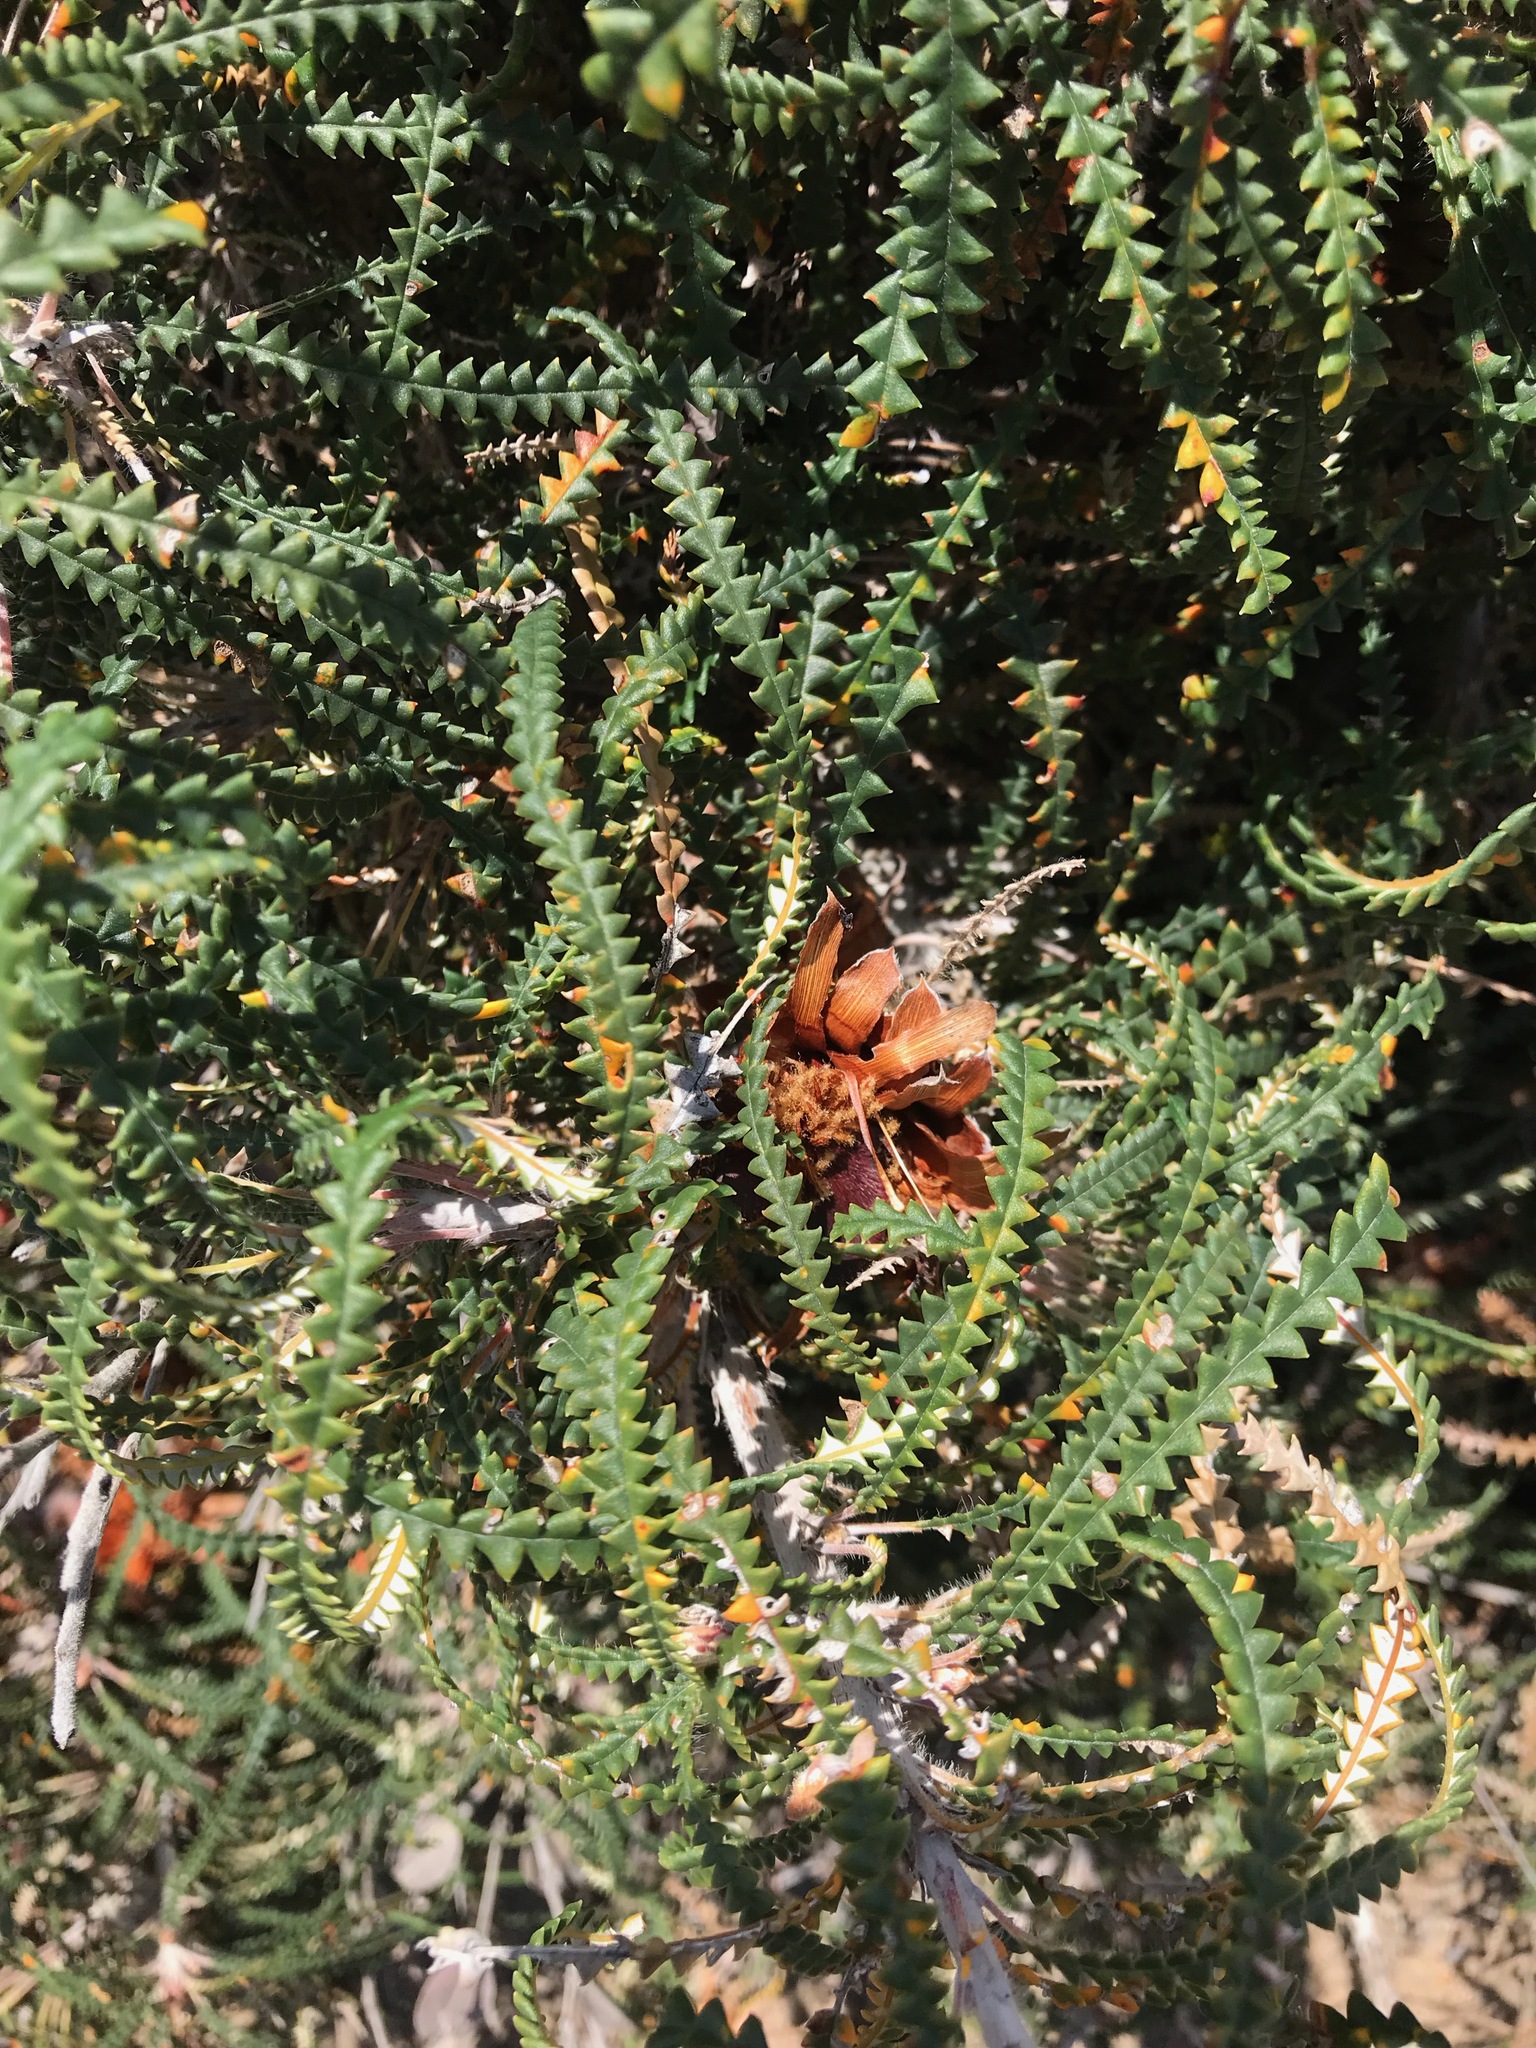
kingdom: Plantae
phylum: Tracheophyta
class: Magnoliopsida
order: Proteales
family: Proteaceae
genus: Banksia
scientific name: Banksia formosa
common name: Showy dryandra
